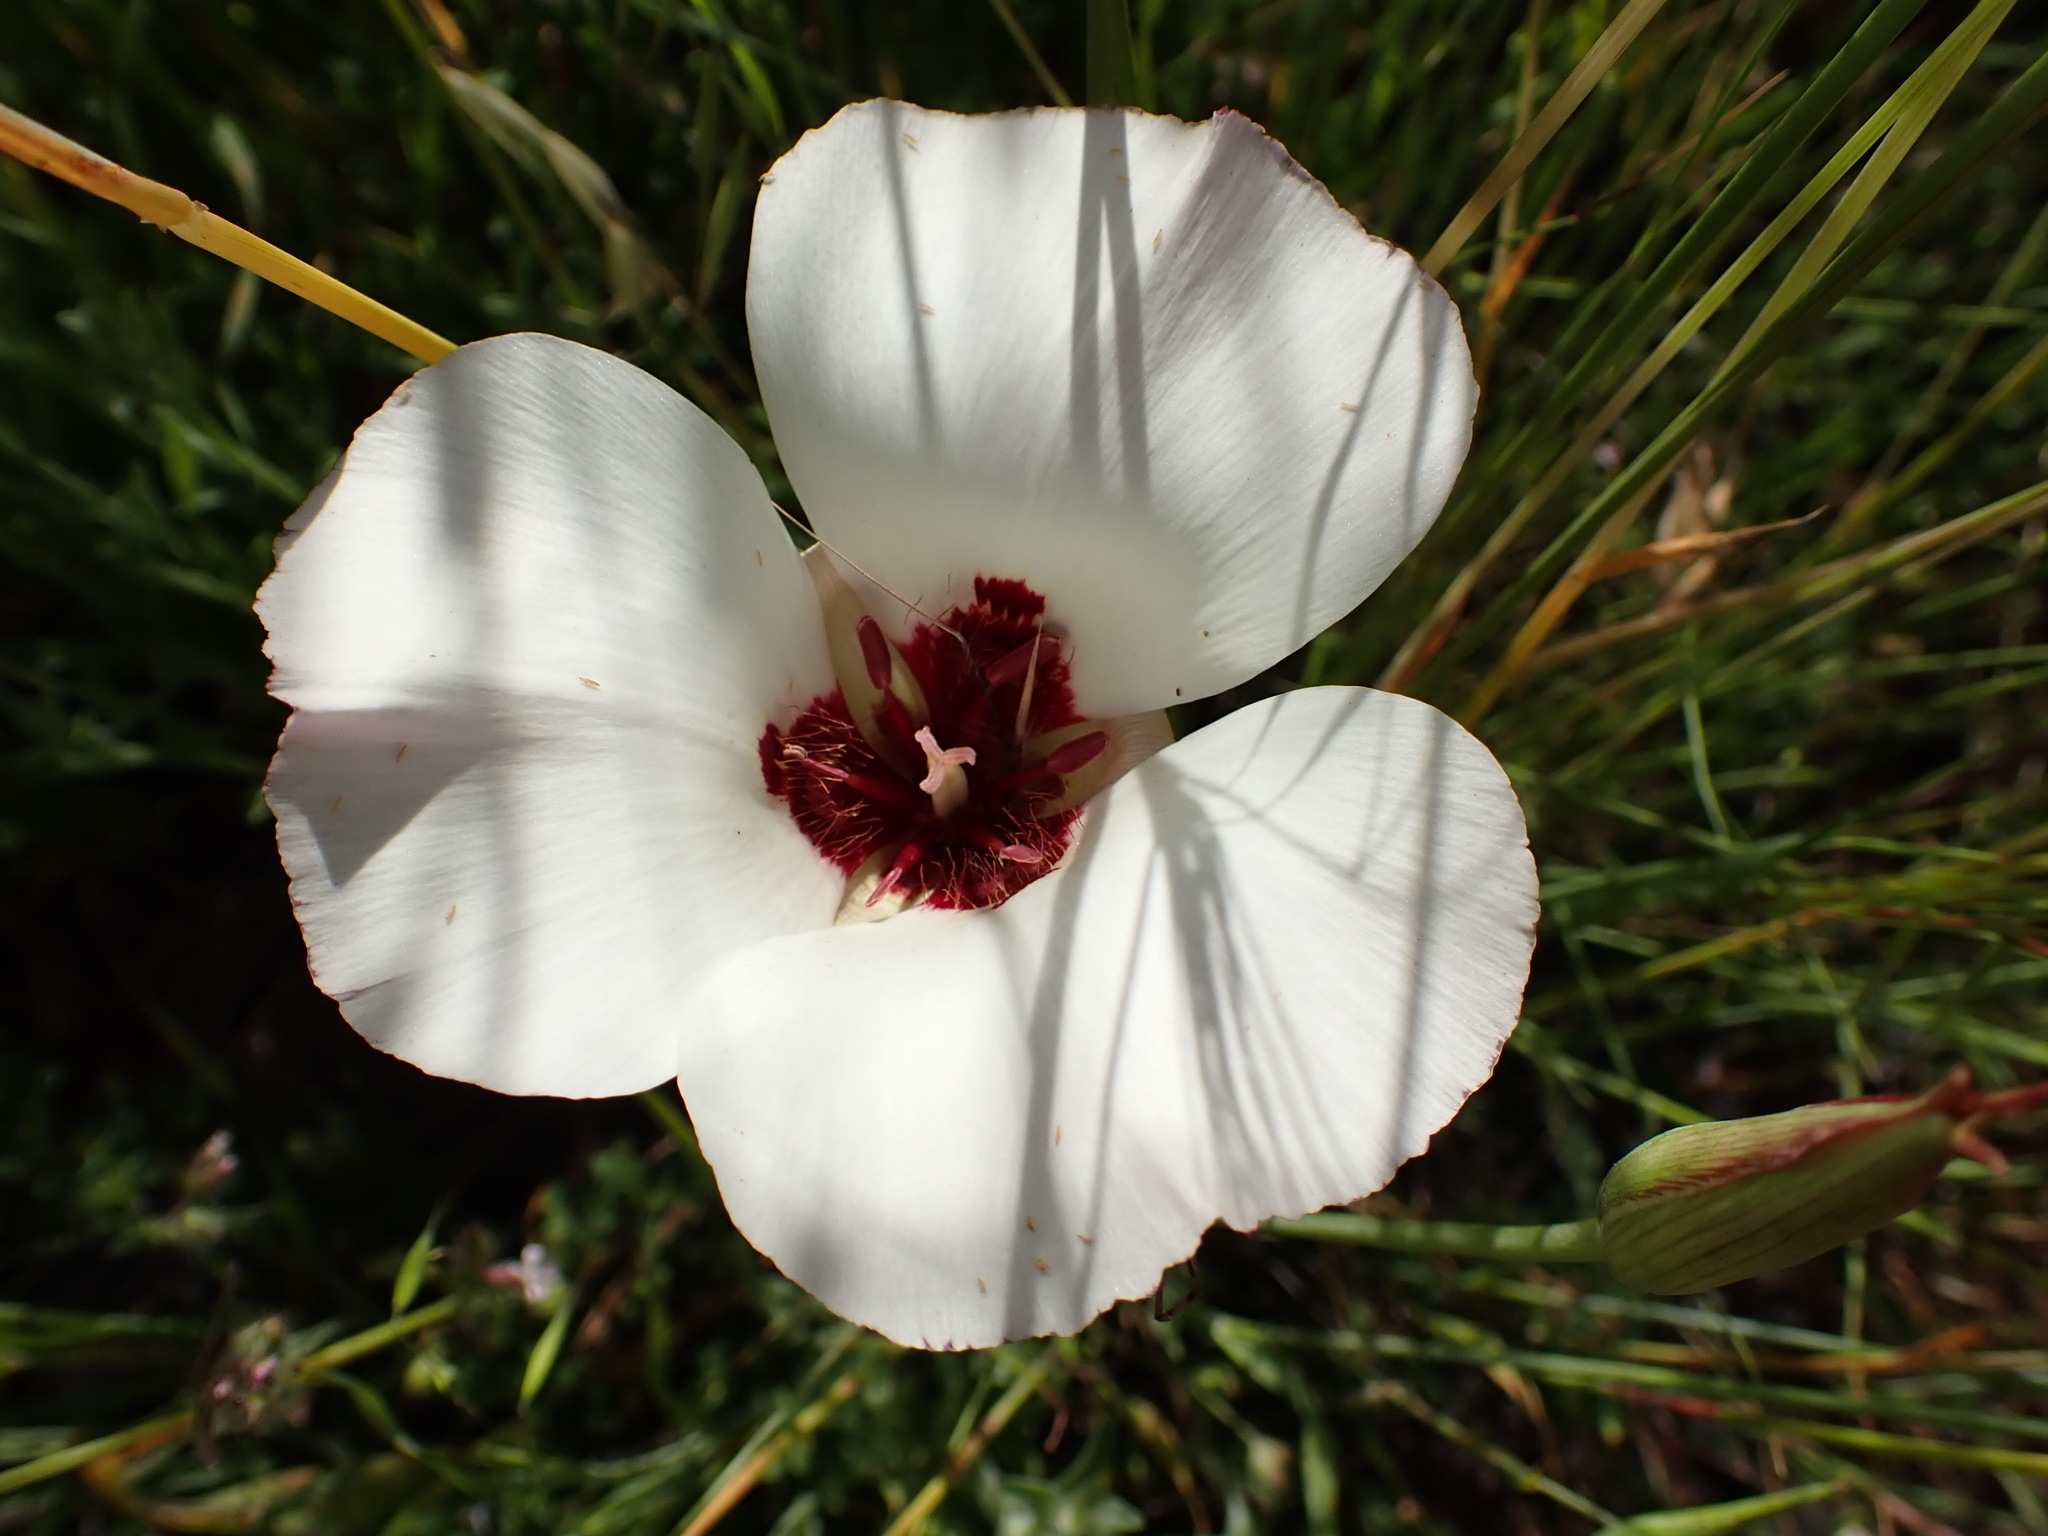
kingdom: Plantae
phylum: Tracheophyta
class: Liliopsida
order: Liliales
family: Liliaceae
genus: Calochortus
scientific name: Calochortus simulans
